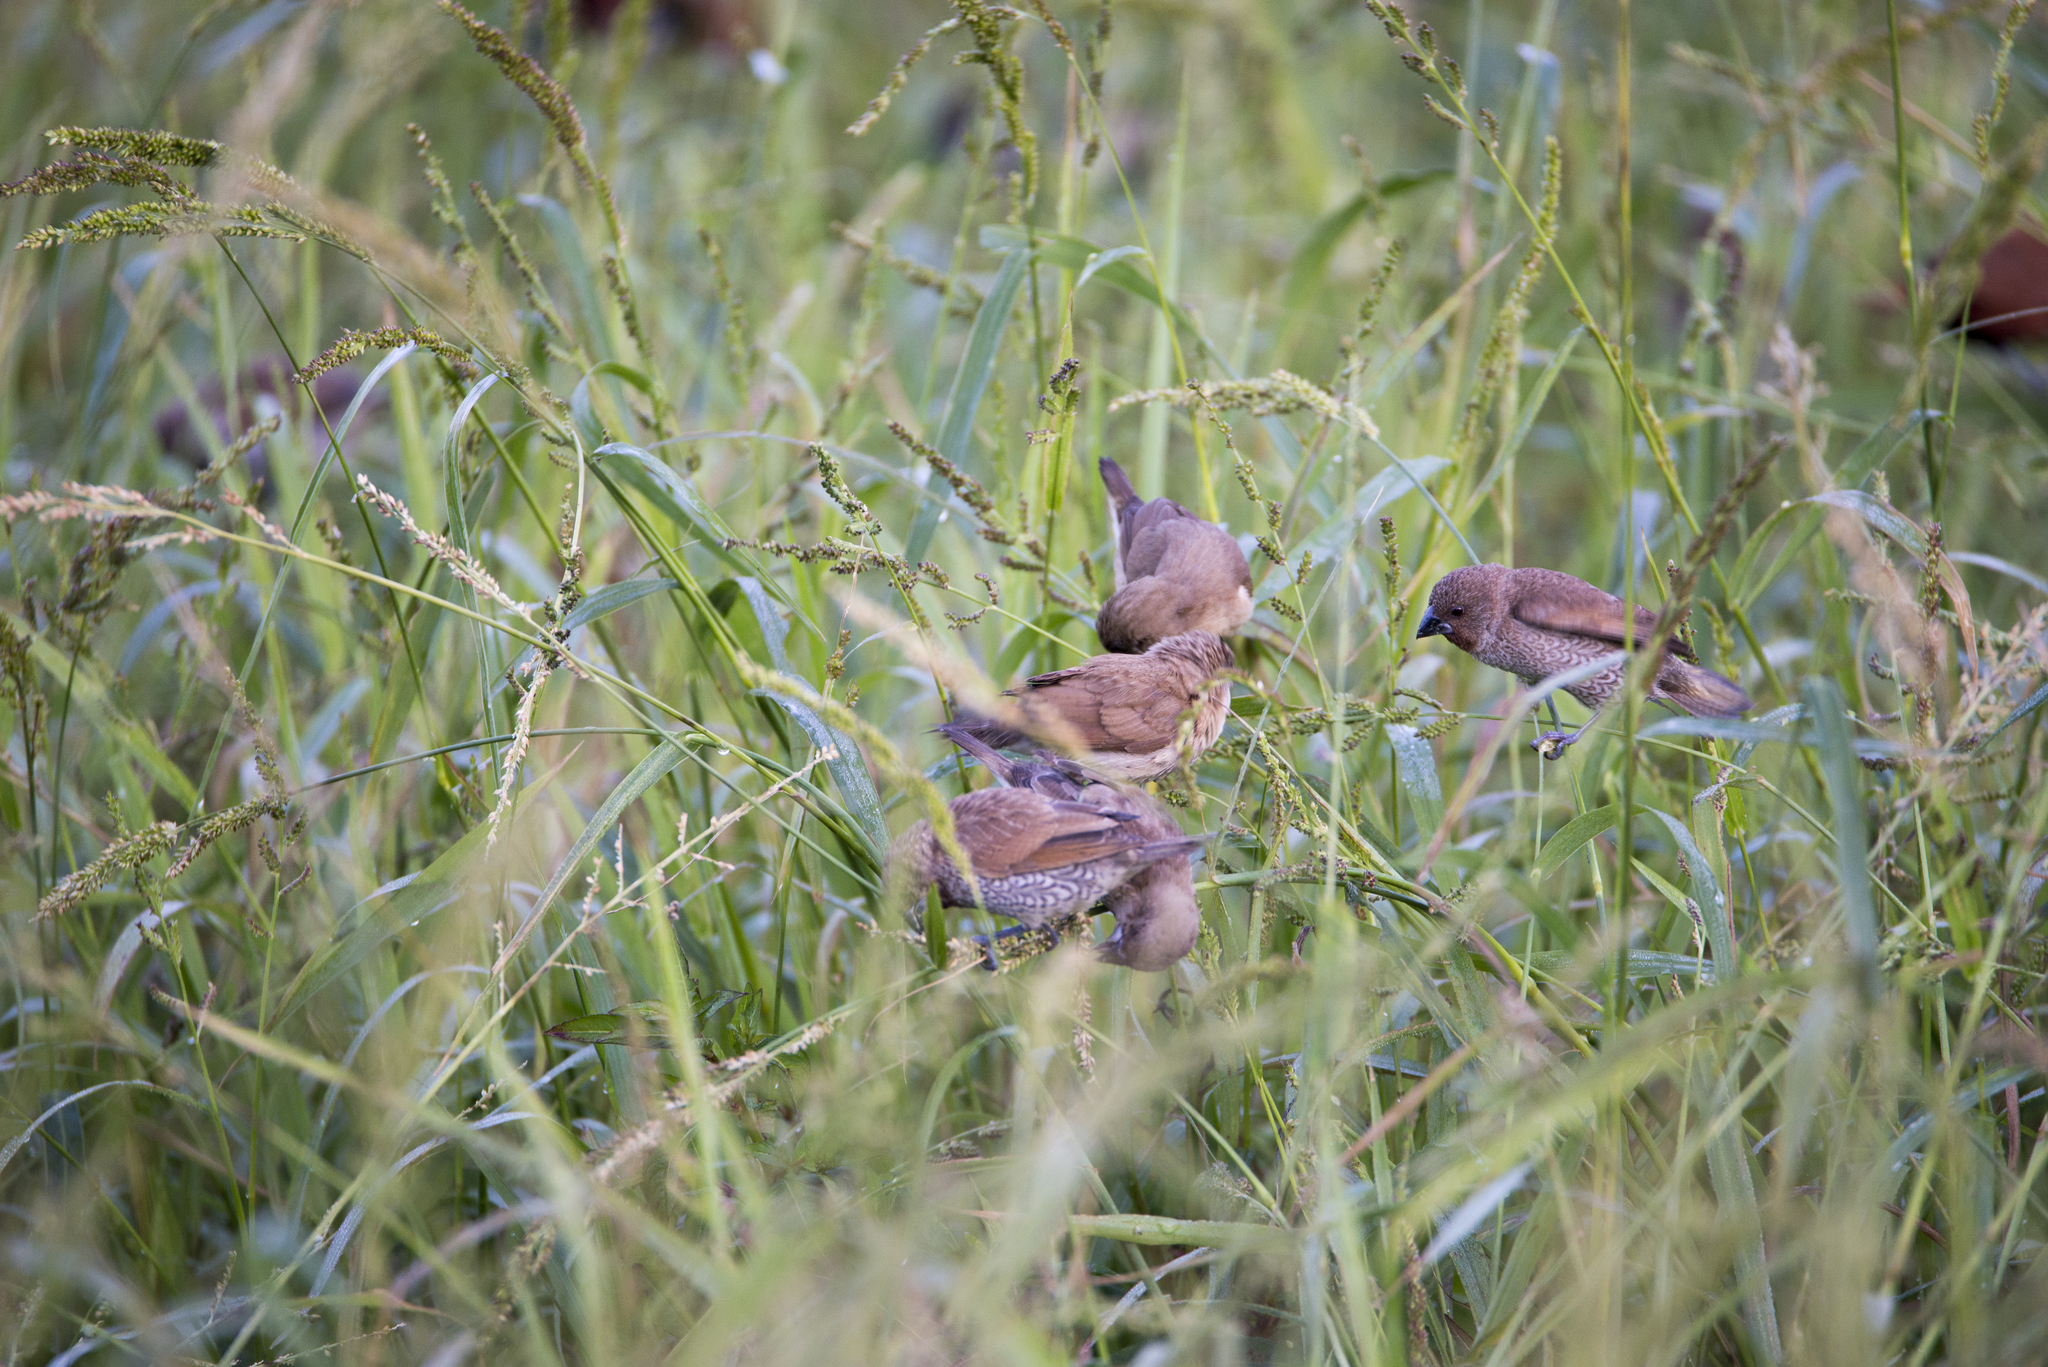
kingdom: Animalia
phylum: Chordata
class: Aves
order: Passeriformes
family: Estrildidae
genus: Lonchura
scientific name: Lonchura punctulata
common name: Scaly-breasted munia
